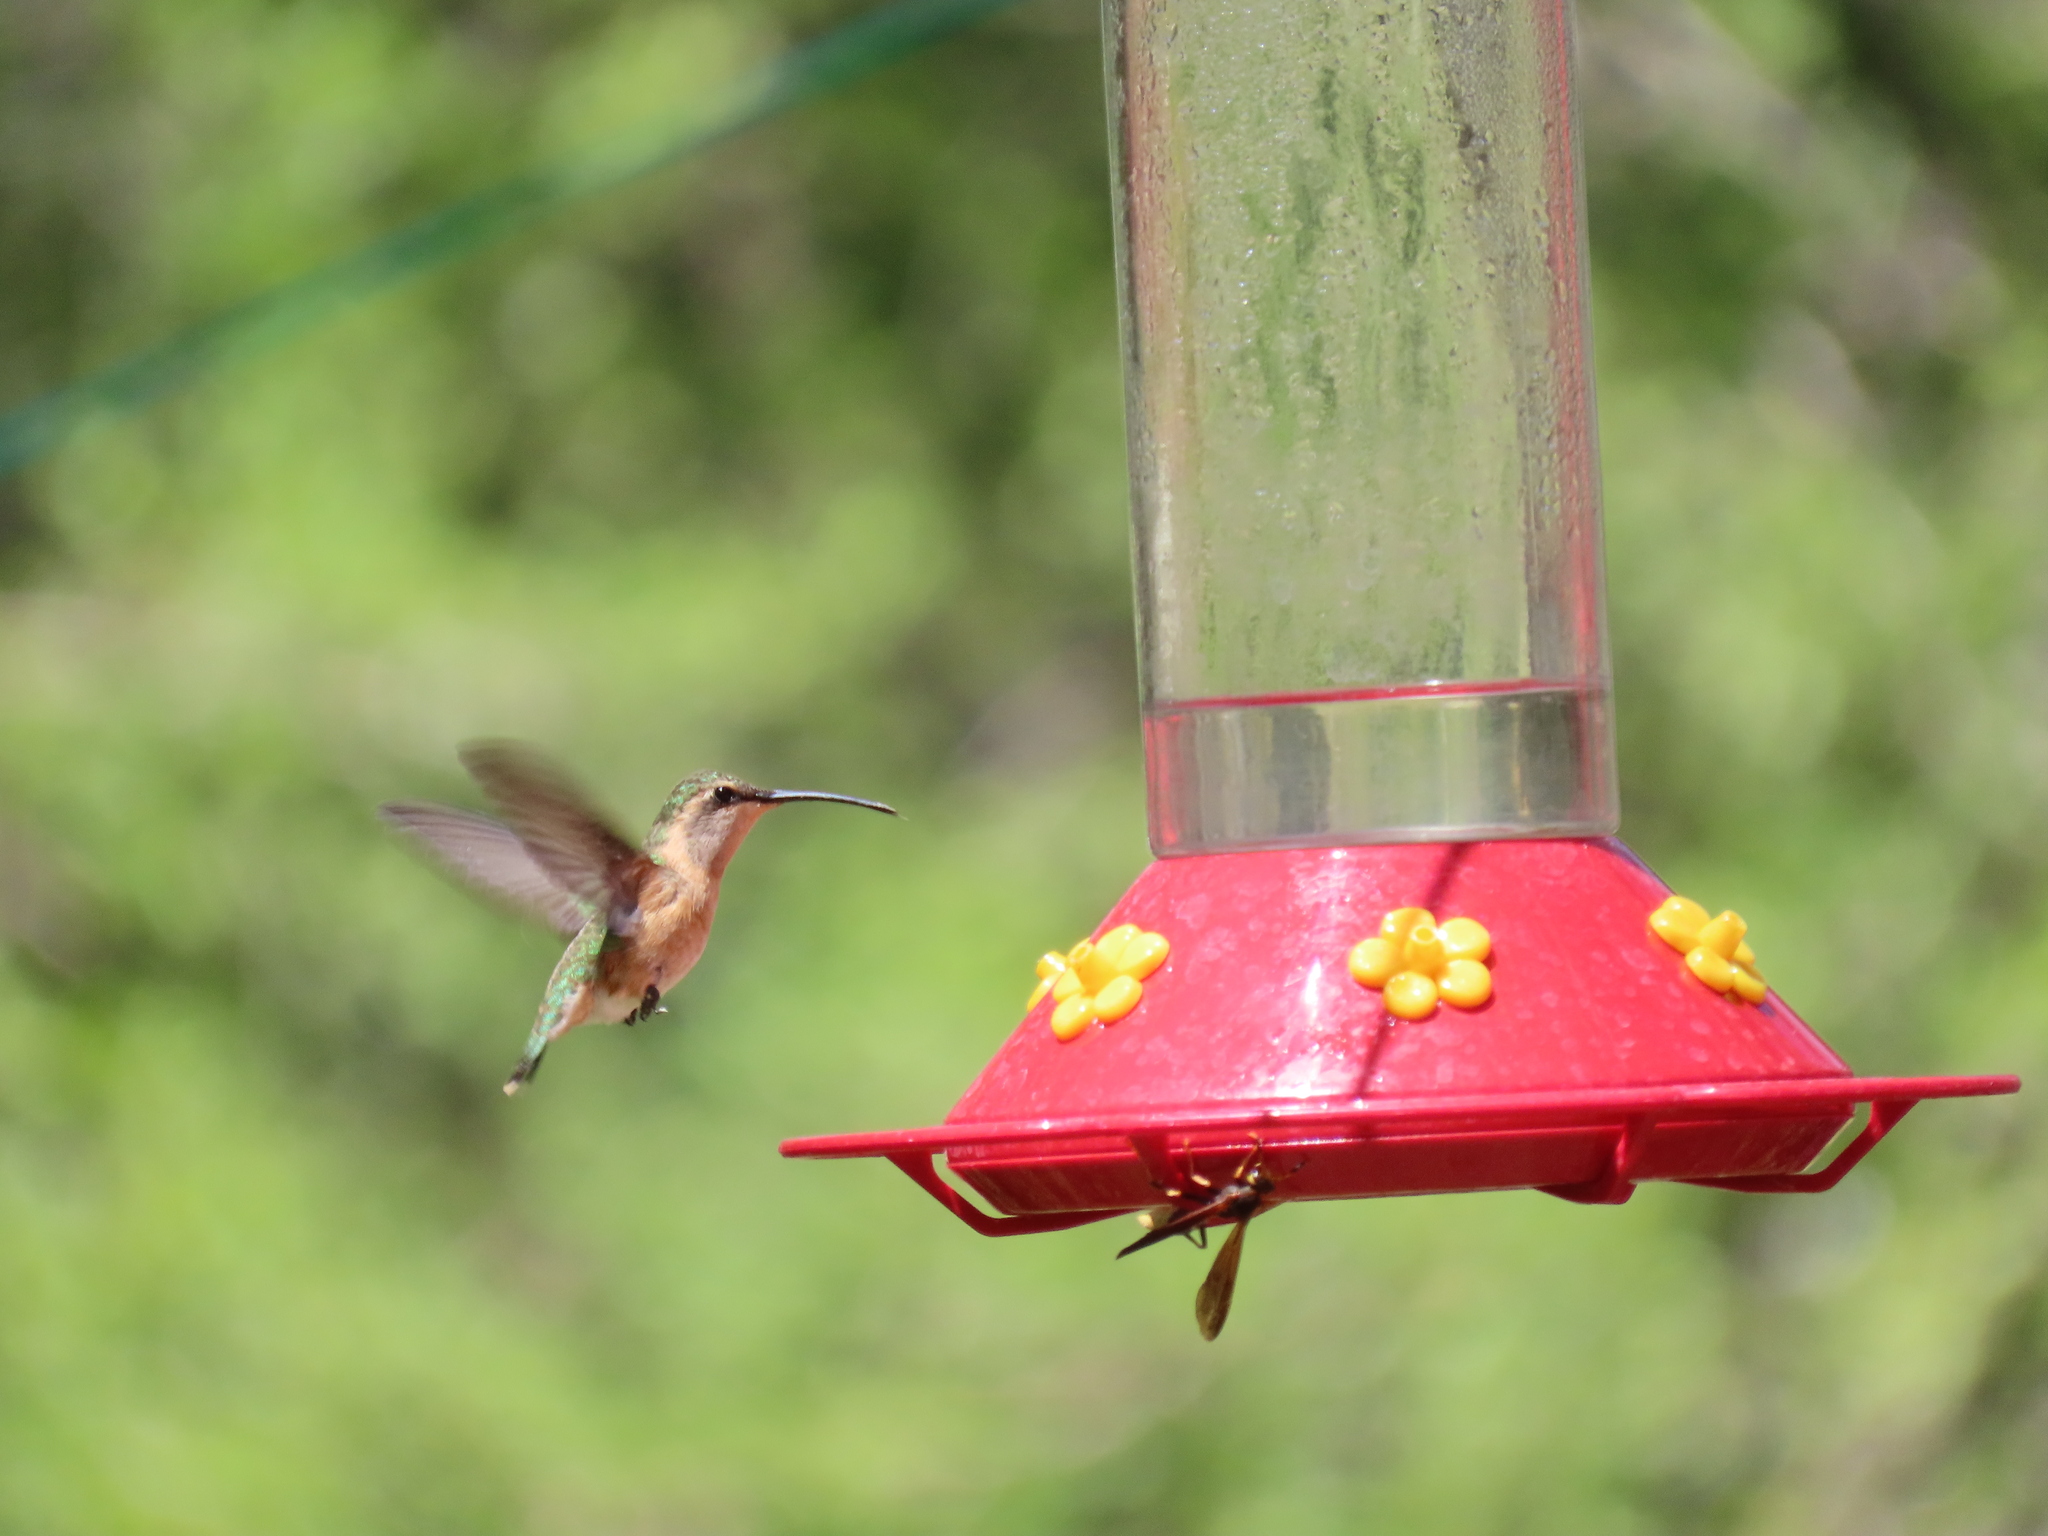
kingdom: Animalia
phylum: Chordata
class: Aves
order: Apodiformes
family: Trochilidae
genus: Calothorax
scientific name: Calothorax lucifer
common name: Lucifer sheartail
